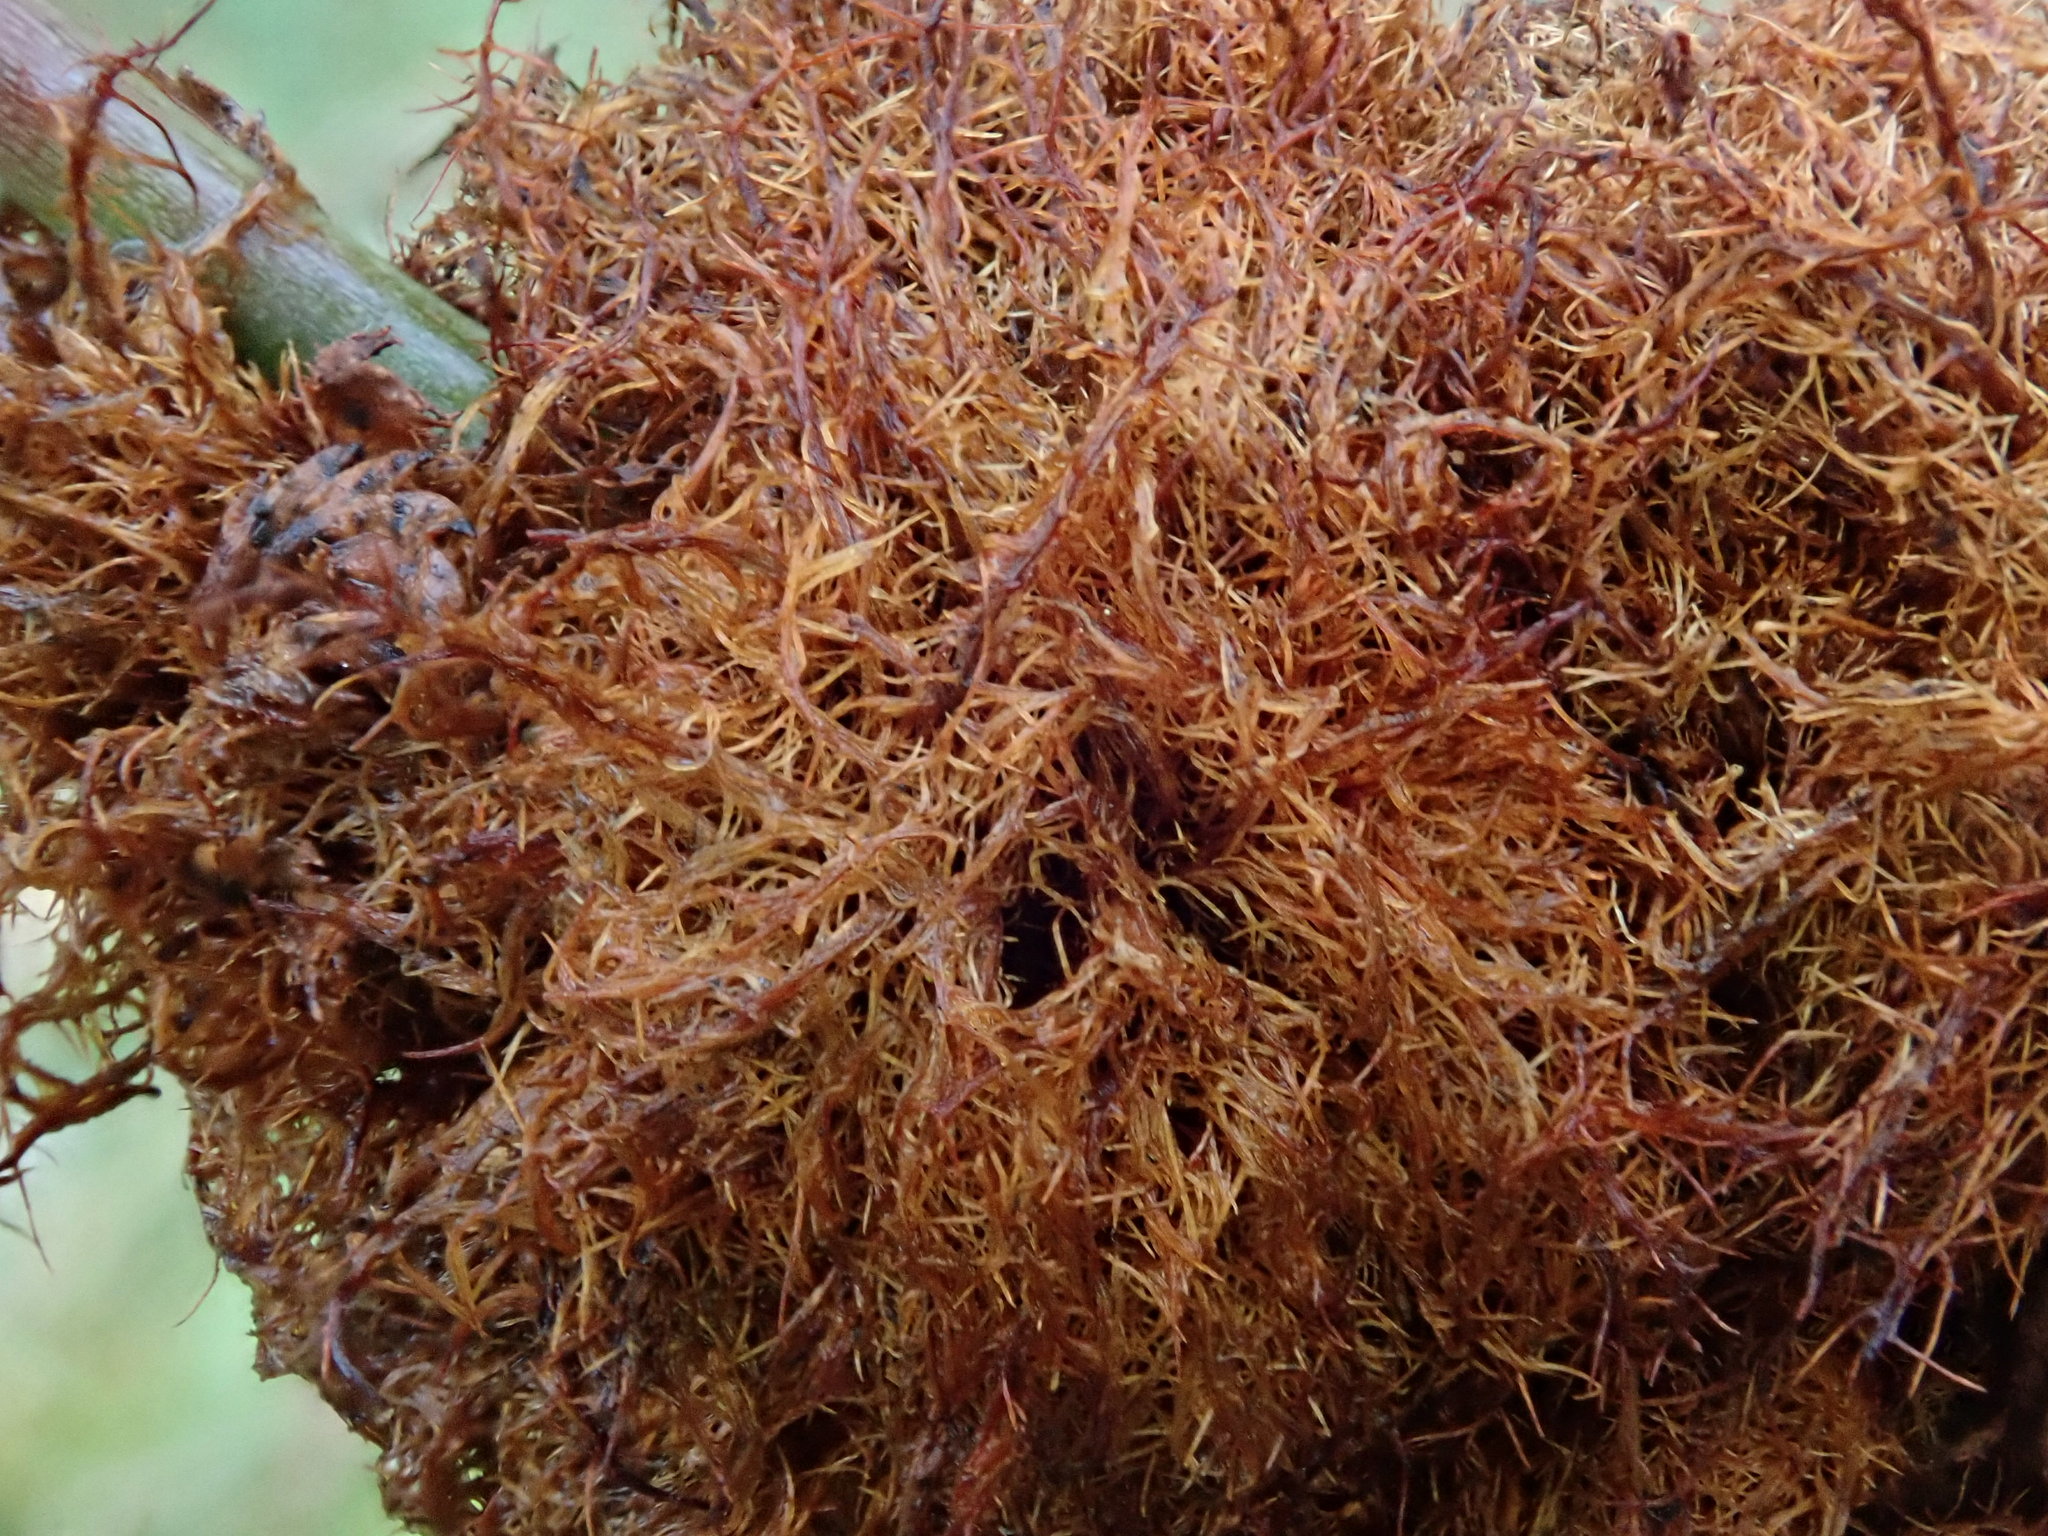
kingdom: Animalia
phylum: Arthropoda
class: Insecta
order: Hymenoptera
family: Cynipidae
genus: Diplolepis
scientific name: Diplolepis rosae
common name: Bedeguar gall
